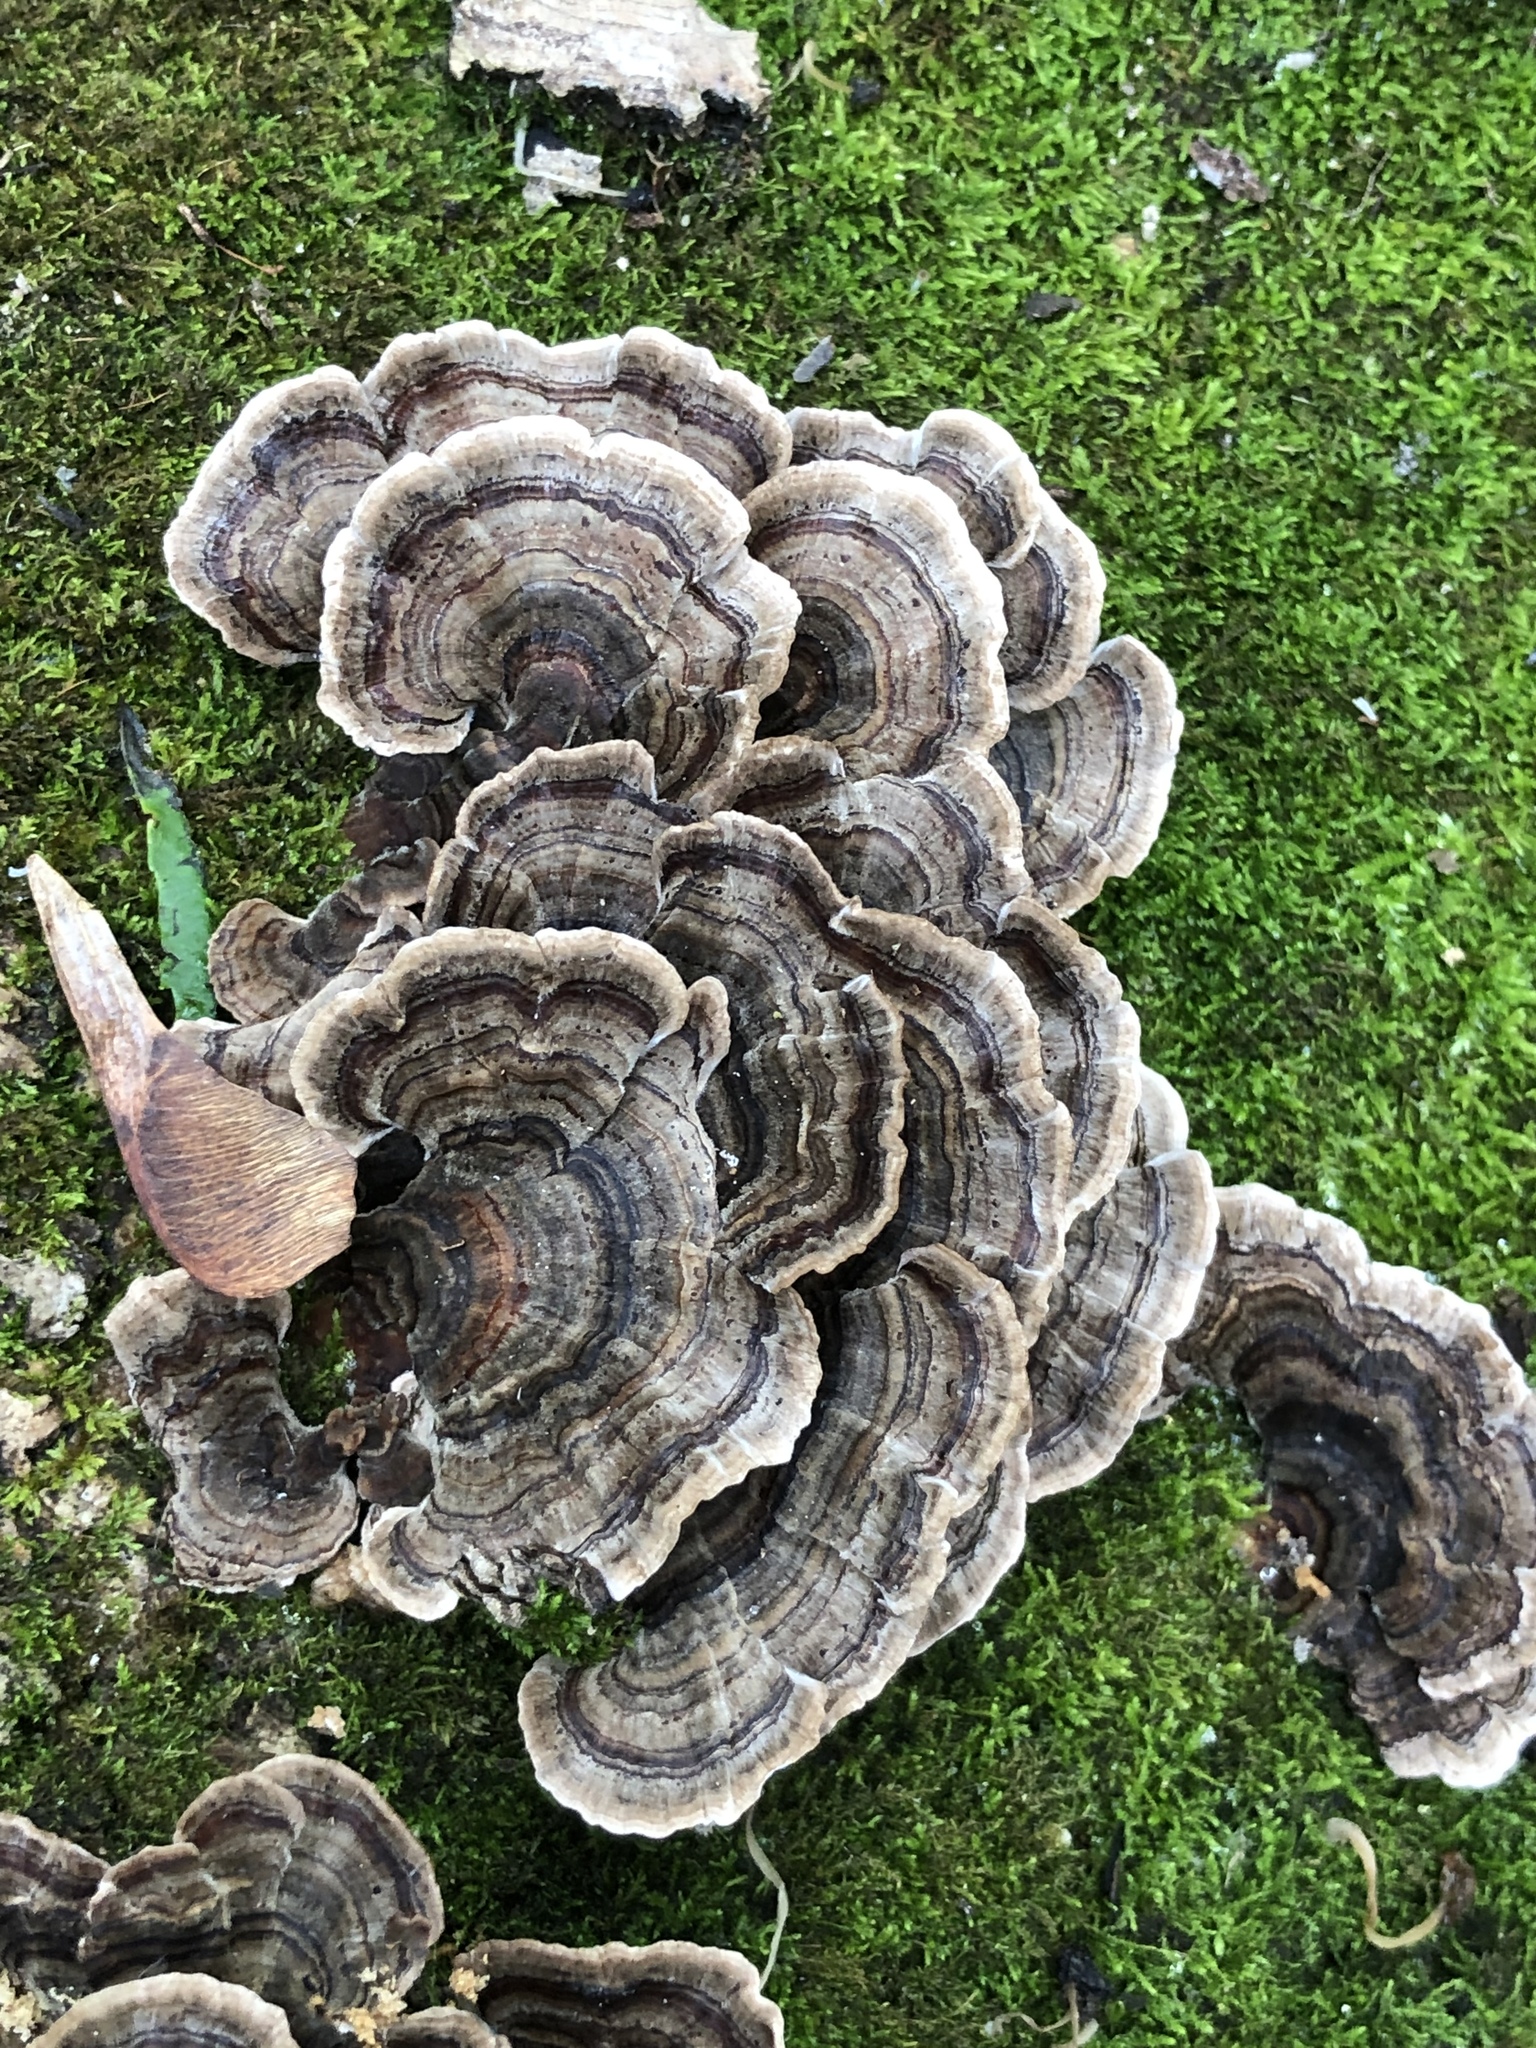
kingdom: Fungi
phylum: Basidiomycota
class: Agaricomycetes
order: Polyporales
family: Polyporaceae
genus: Trametes
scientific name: Trametes versicolor
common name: Turkeytail
